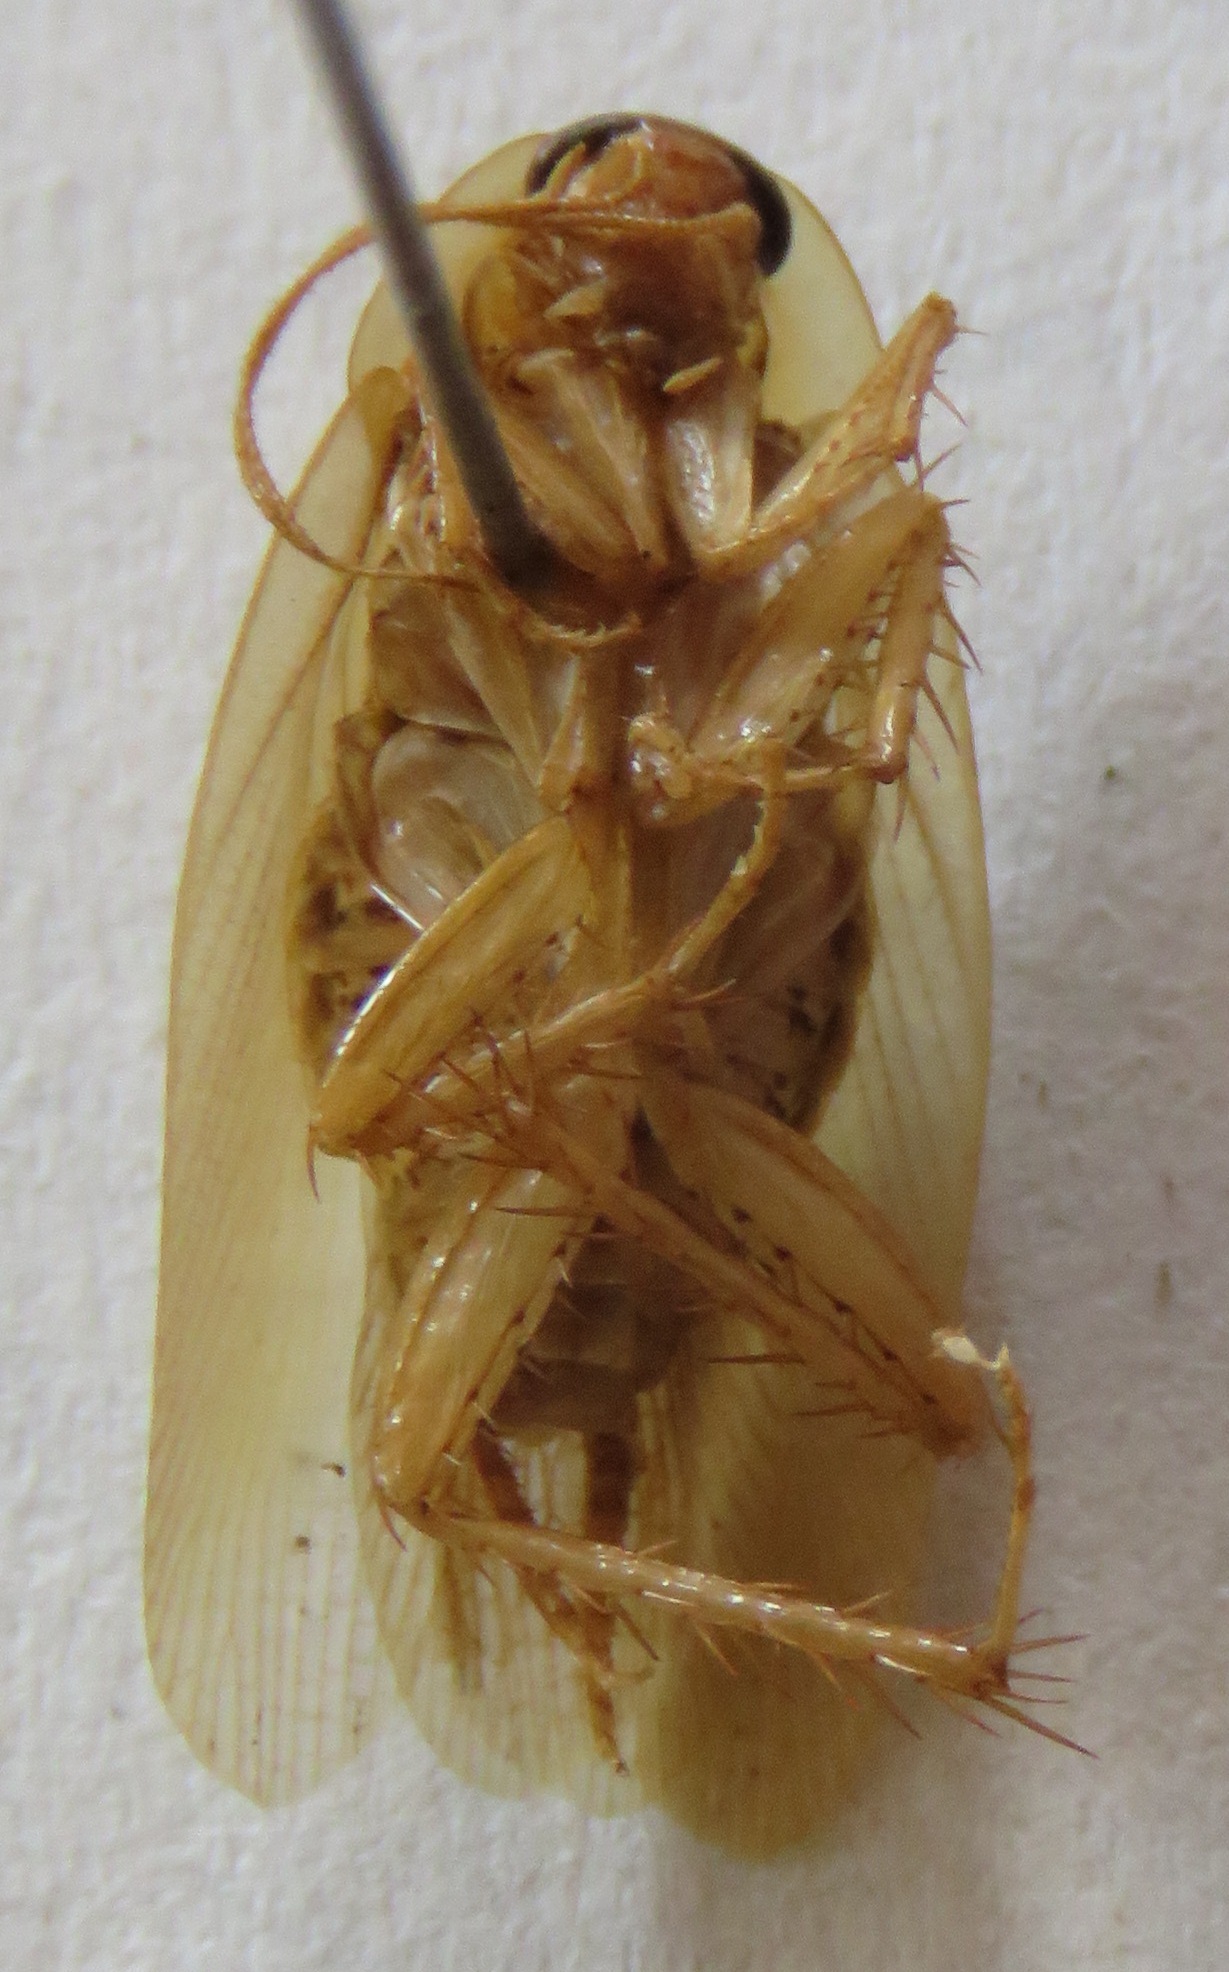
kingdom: Animalia
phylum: Arthropoda
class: Insecta
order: Blattodea
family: Ectobiidae
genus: Nahublattella
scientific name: Nahublattella fraterna
